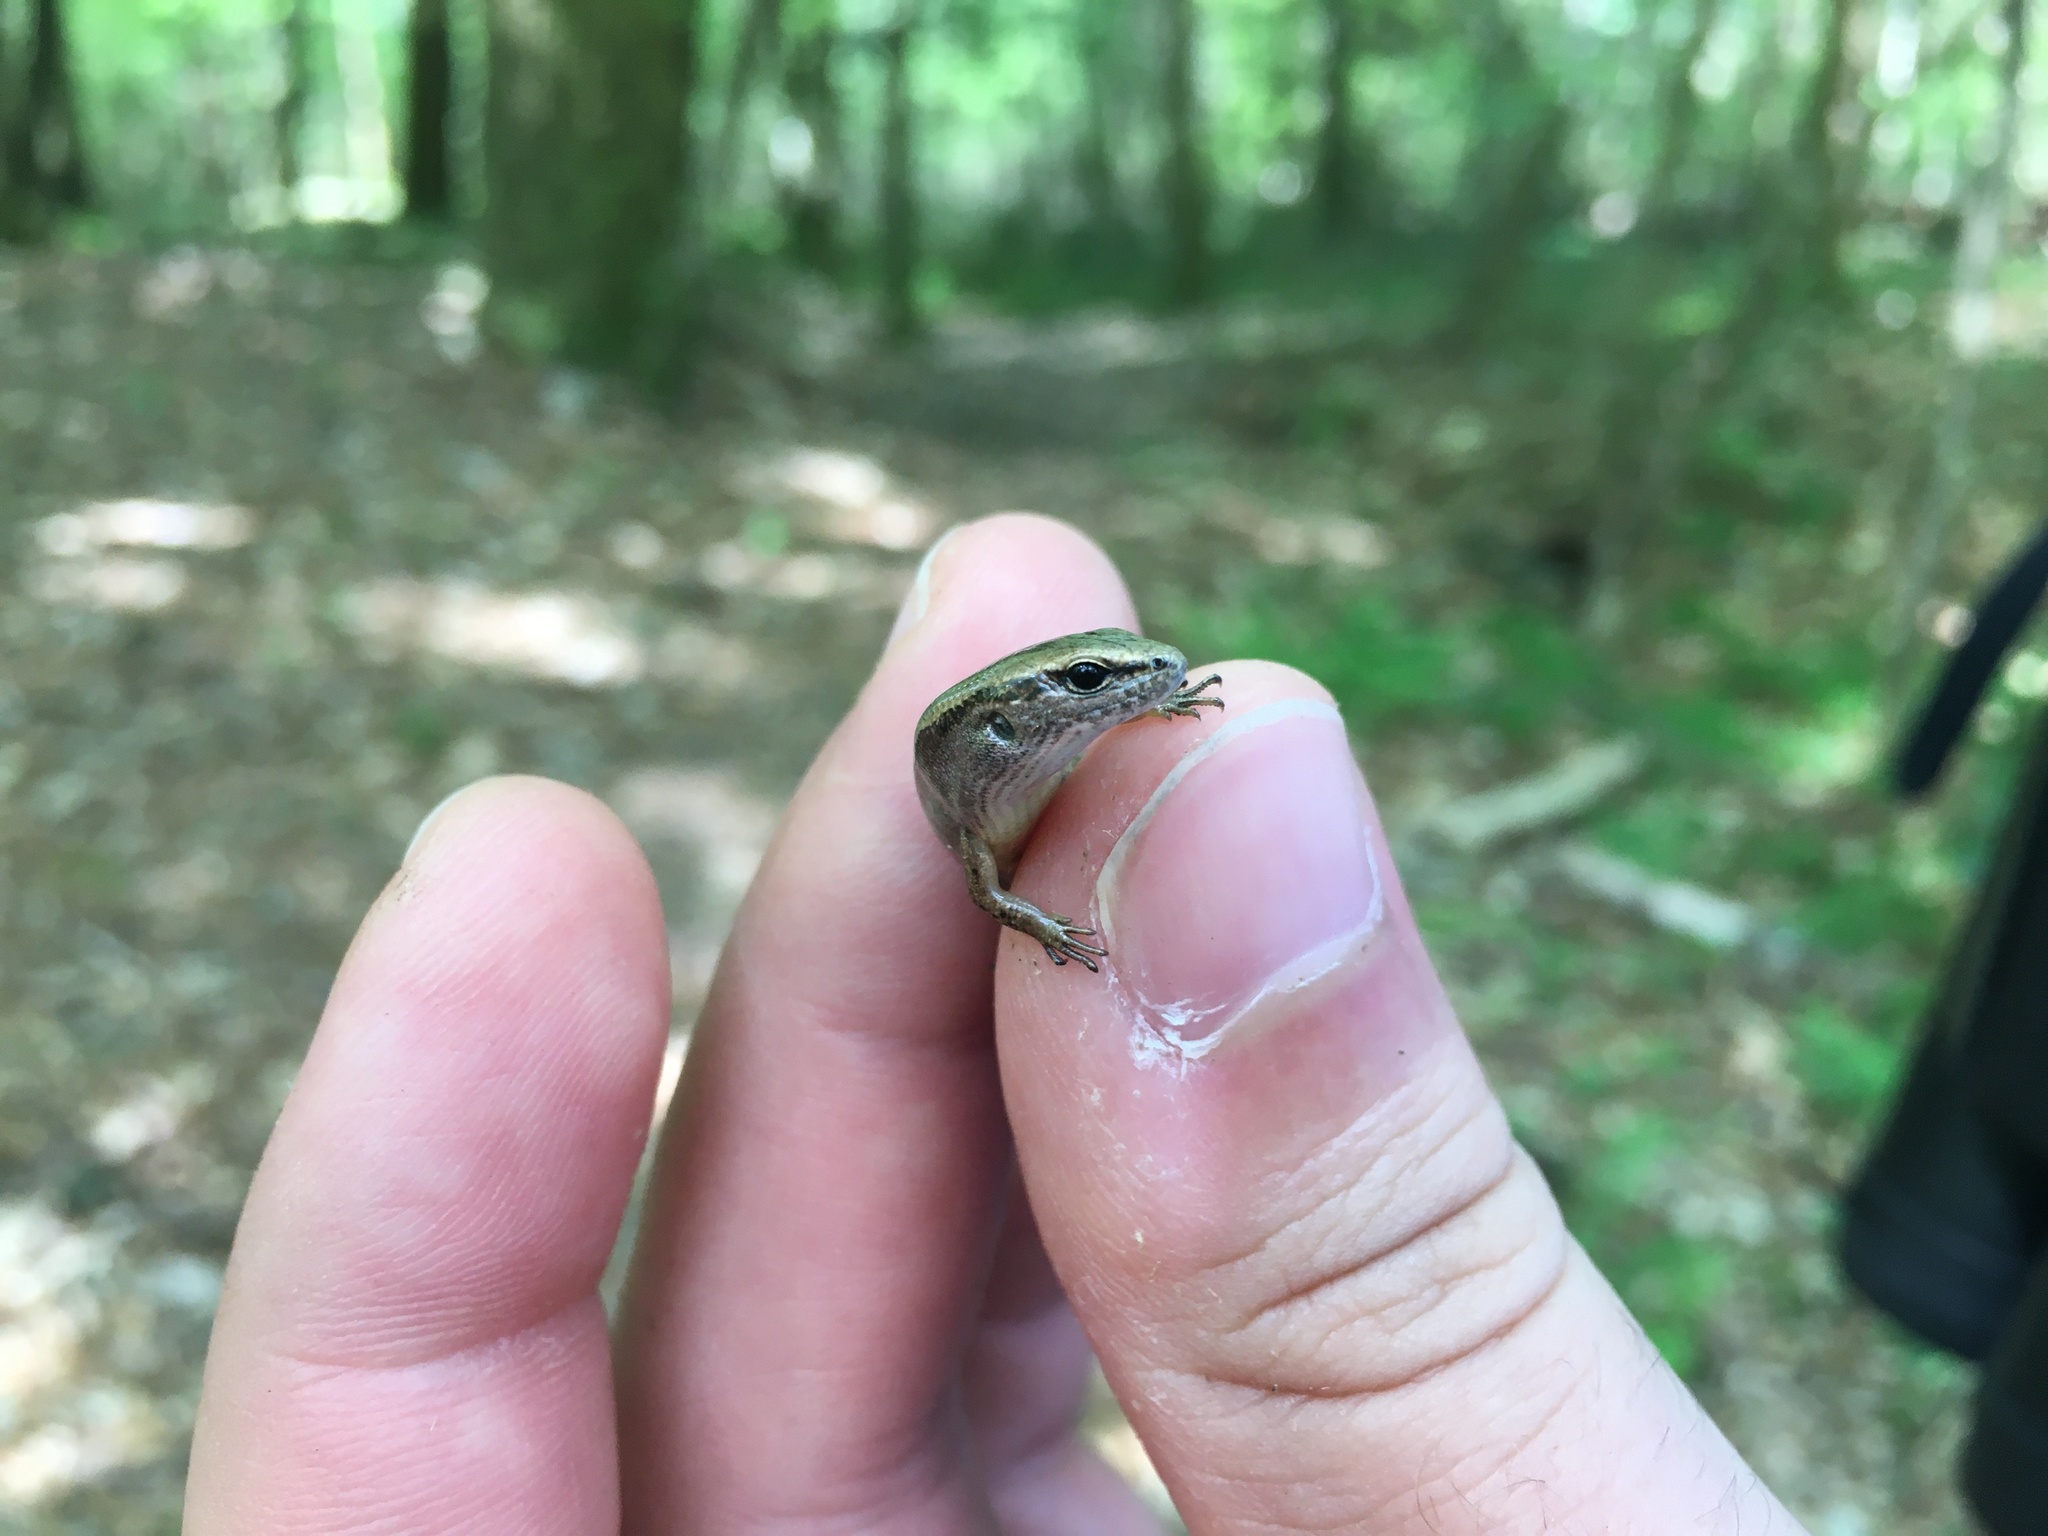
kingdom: Animalia
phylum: Chordata
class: Squamata
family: Scincidae
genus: Scincella
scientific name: Scincella lateralis
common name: Ground skink
